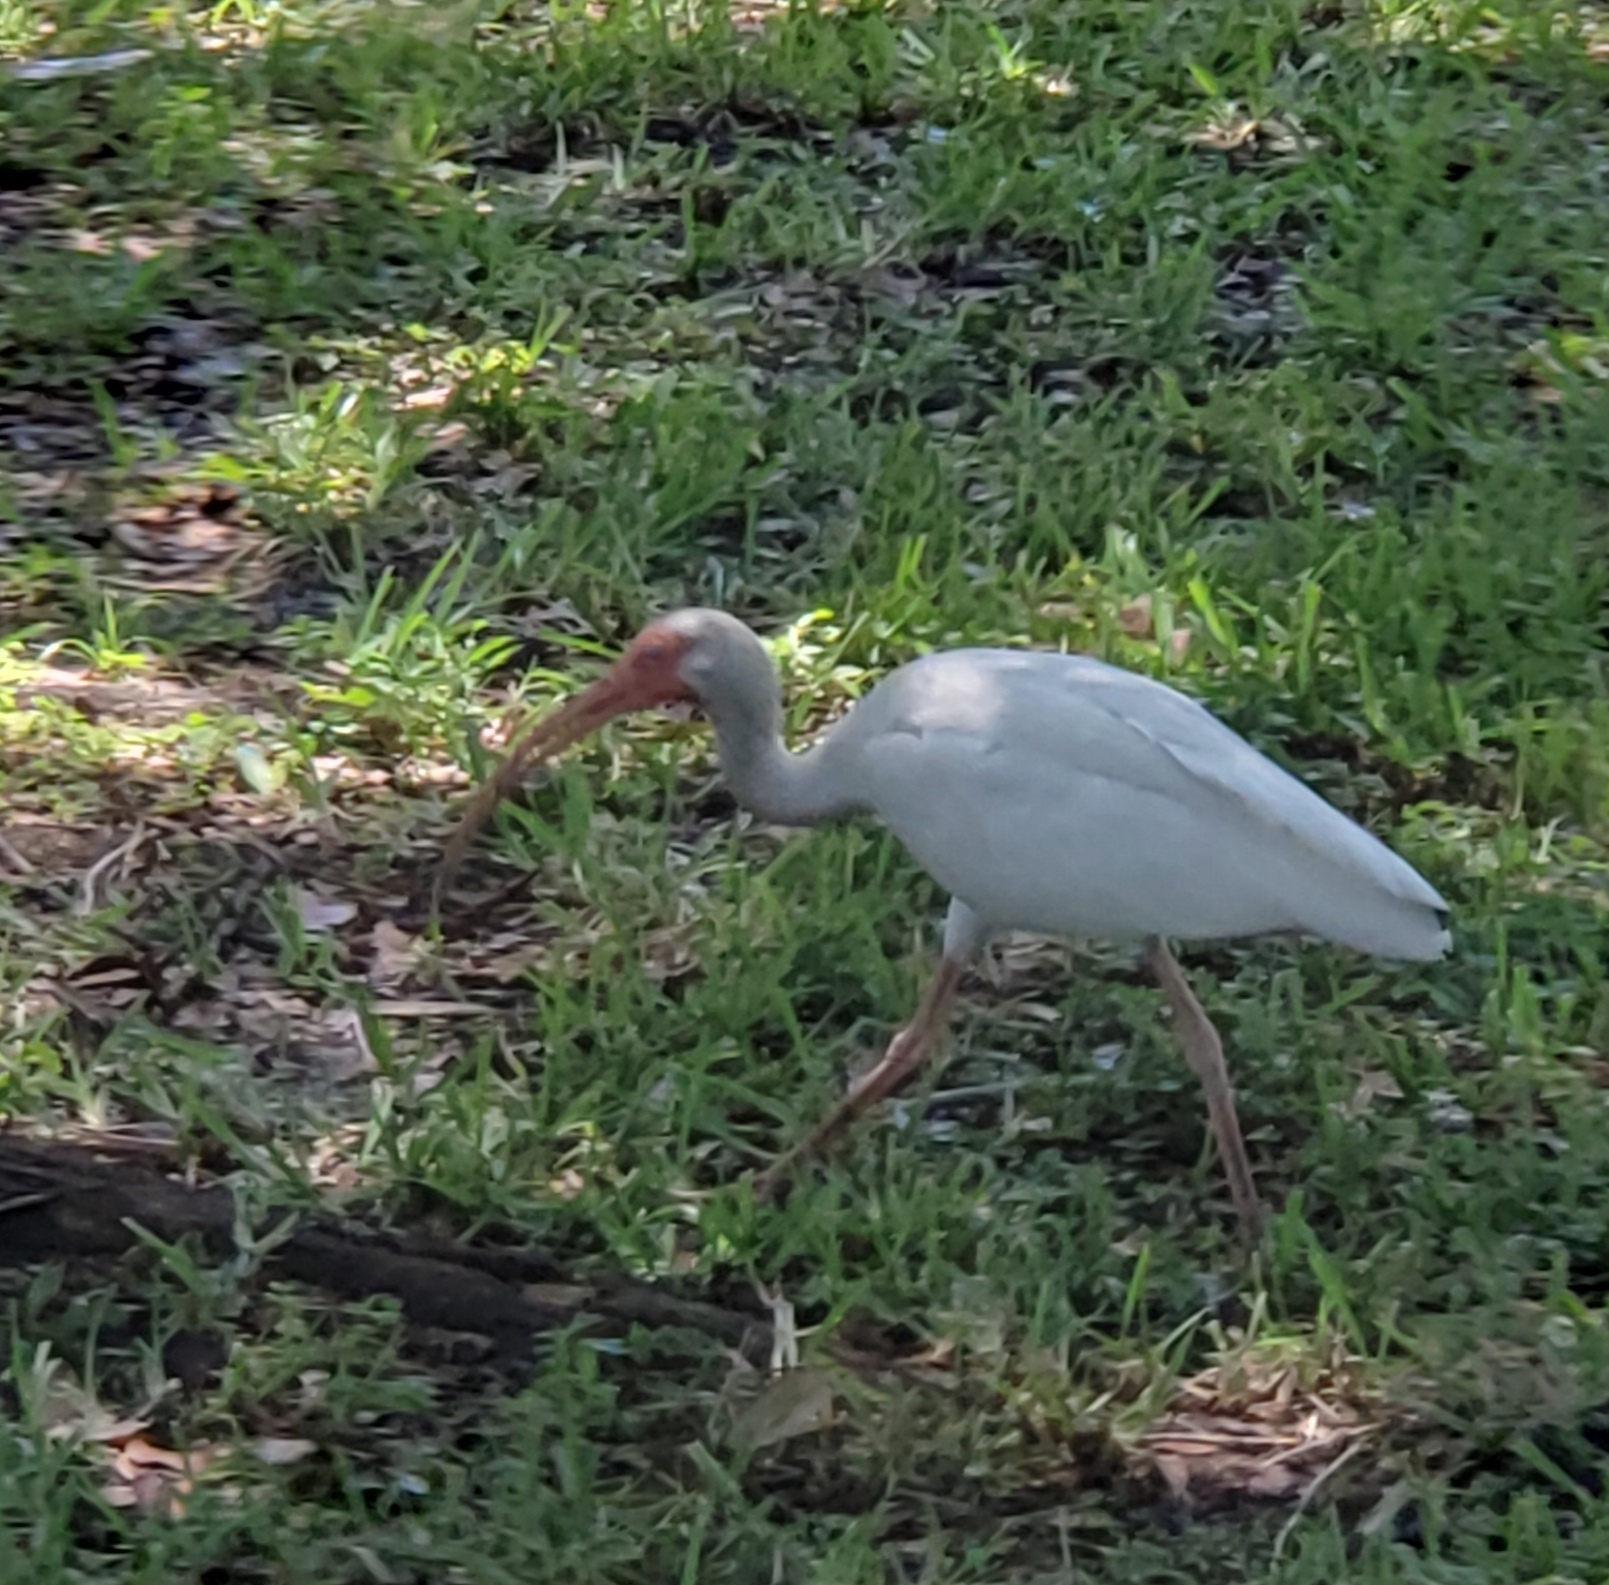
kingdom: Animalia
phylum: Chordata
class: Aves
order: Pelecaniformes
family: Threskiornithidae
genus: Eudocimus
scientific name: Eudocimus albus
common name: White ibis
